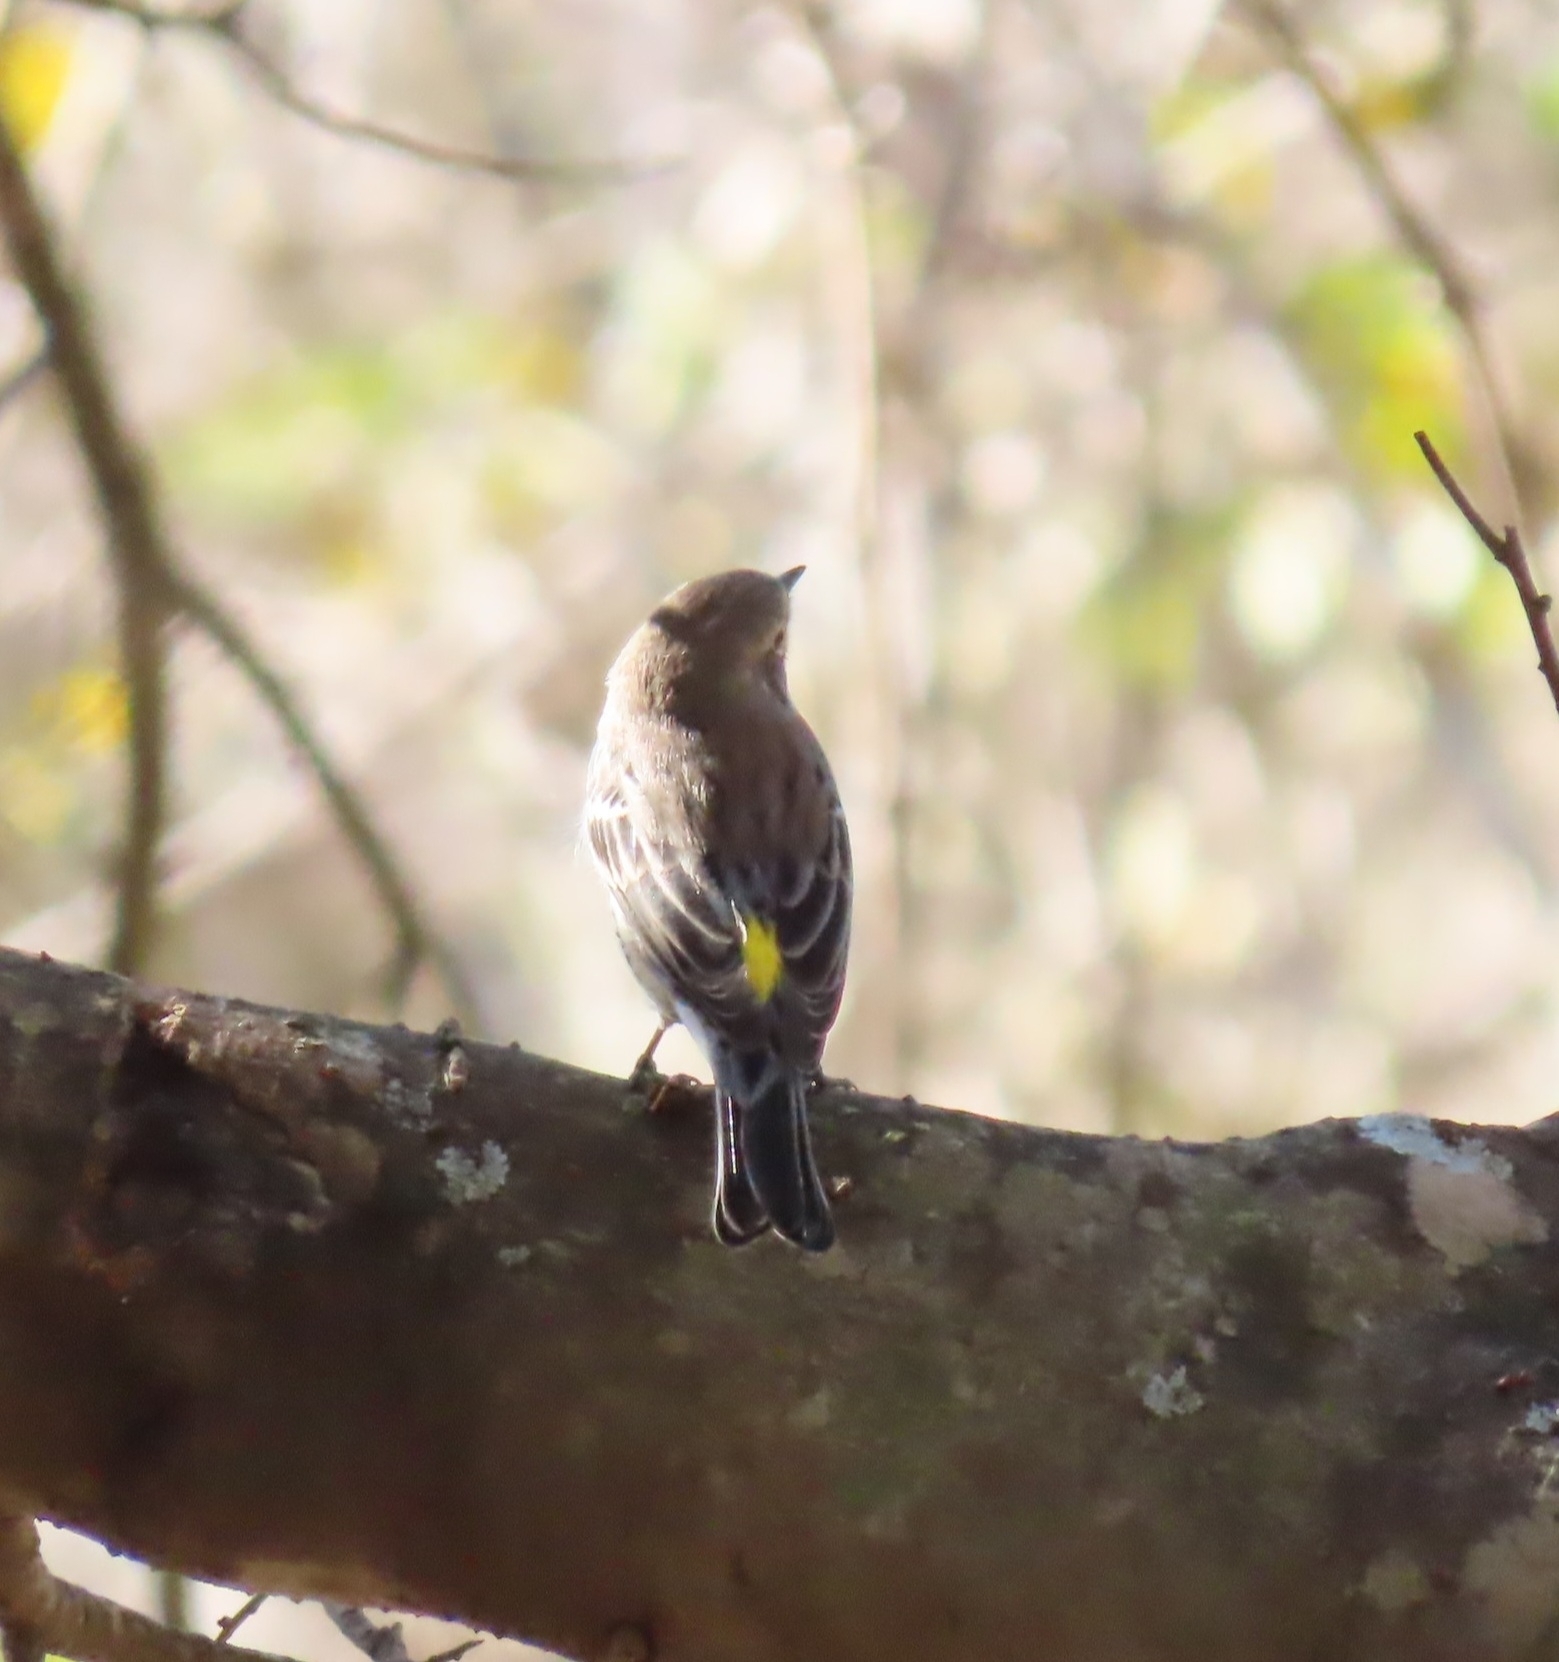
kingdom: Animalia
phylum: Chordata
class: Aves
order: Passeriformes
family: Parulidae
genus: Setophaga
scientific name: Setophaga coronata
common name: Myrtle warbler
